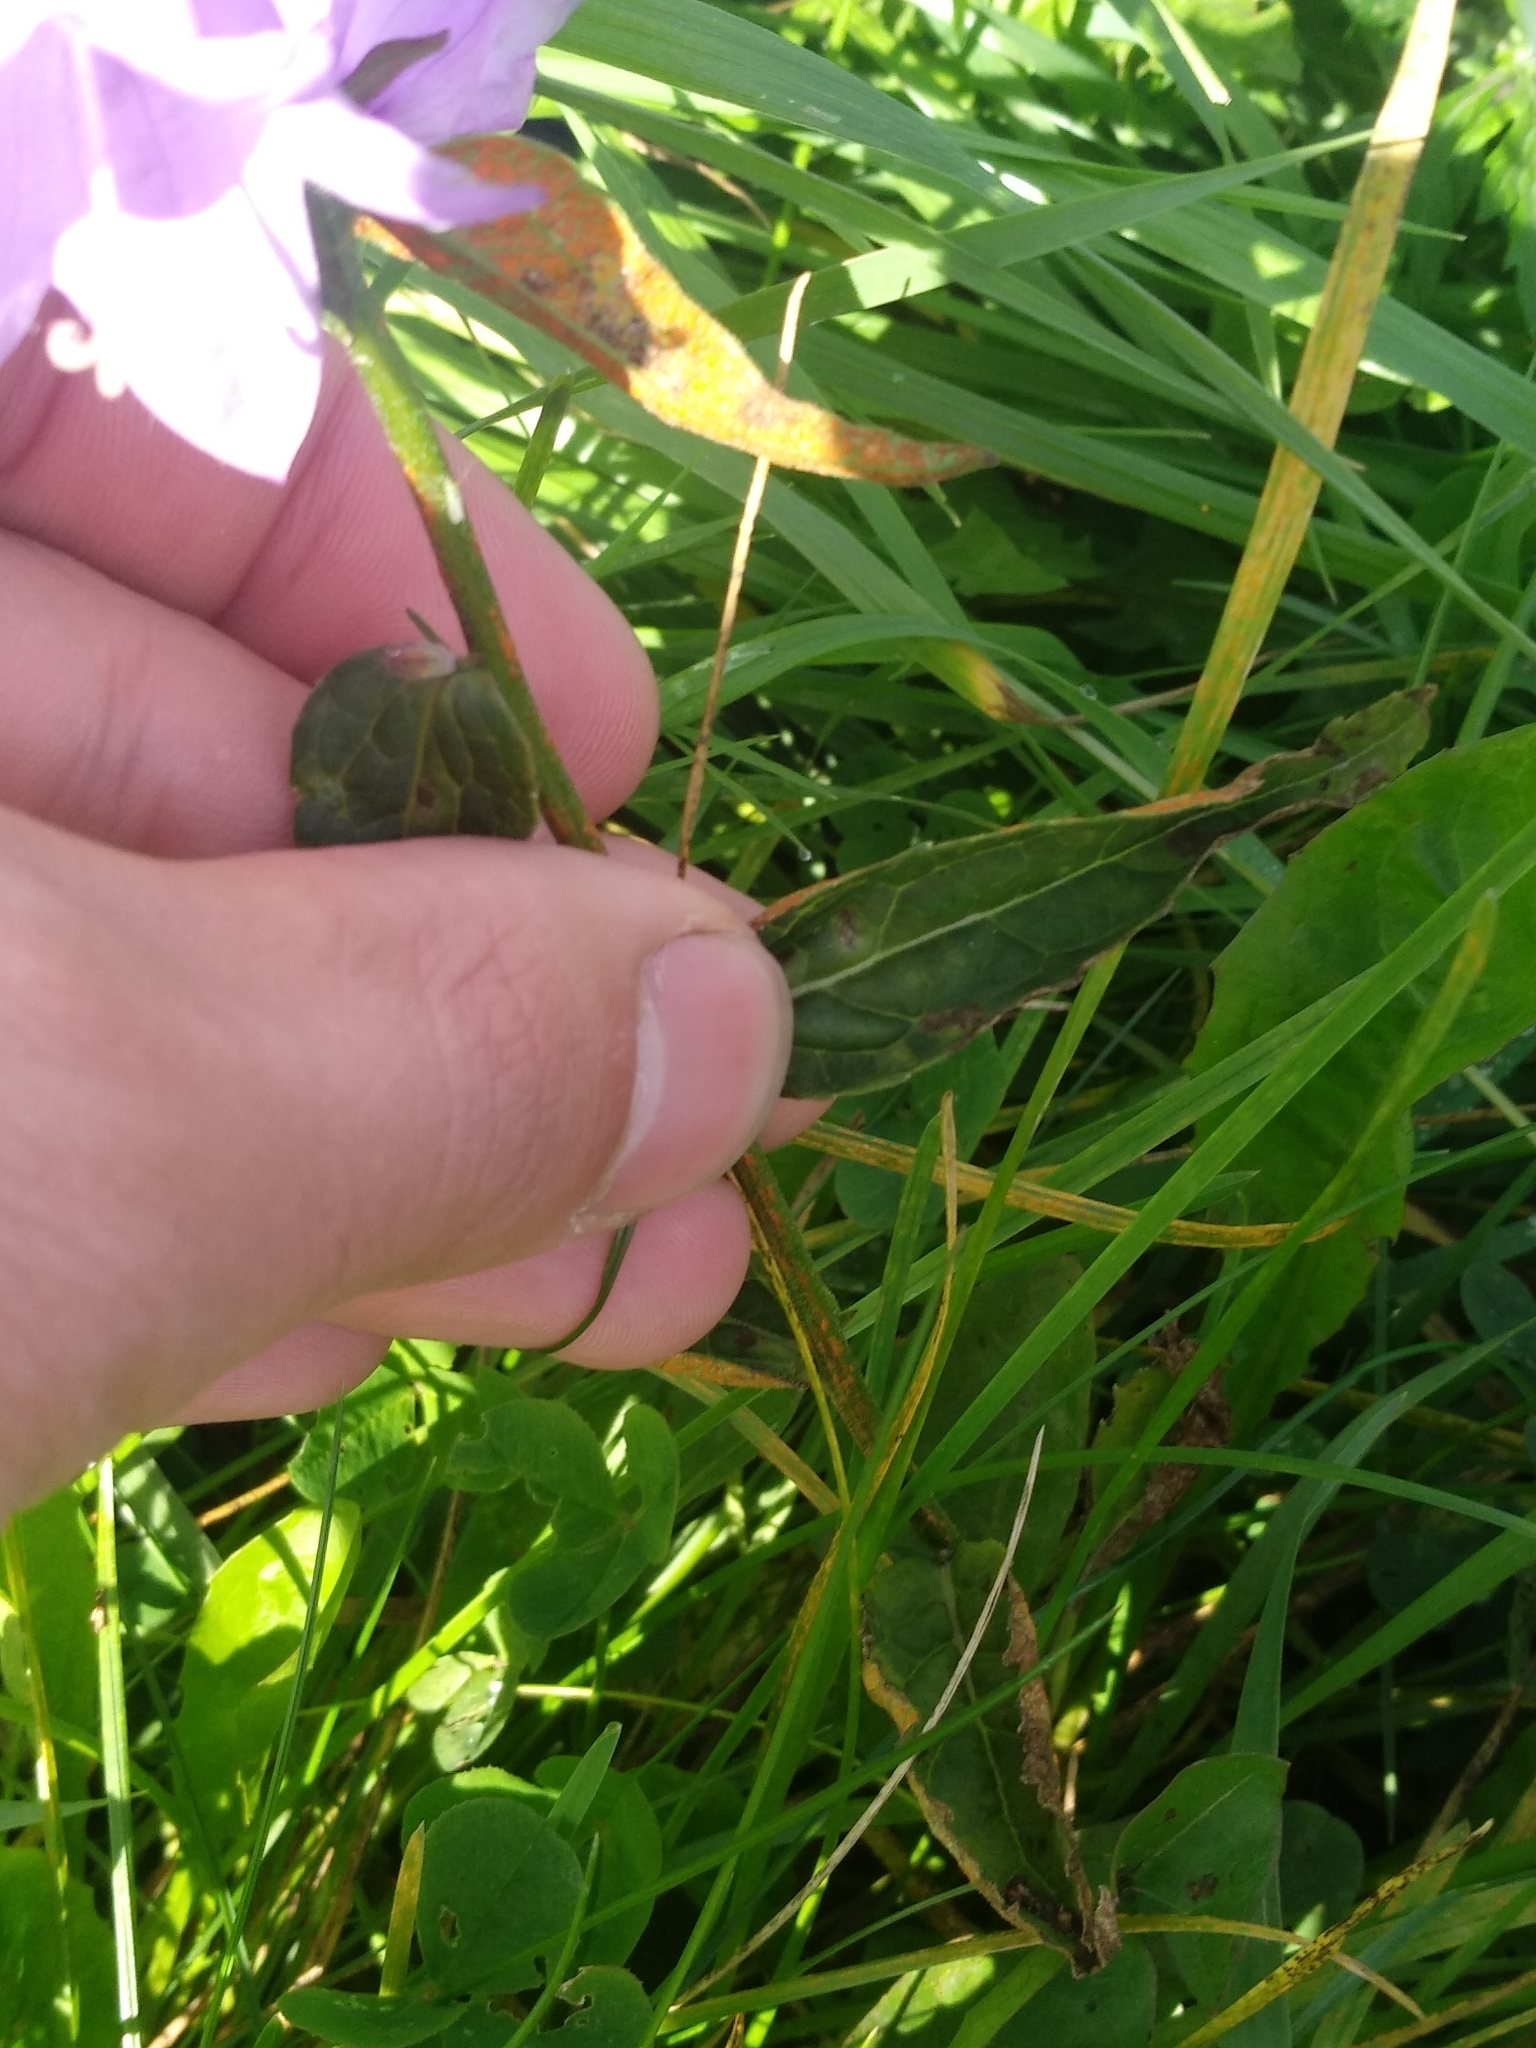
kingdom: Plantae
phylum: Tracheophyta
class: Magnoliopsida
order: Asterales
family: Campanulaceae
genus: Campanula
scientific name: Campanula rapunculoides
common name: Creeping bellflower
